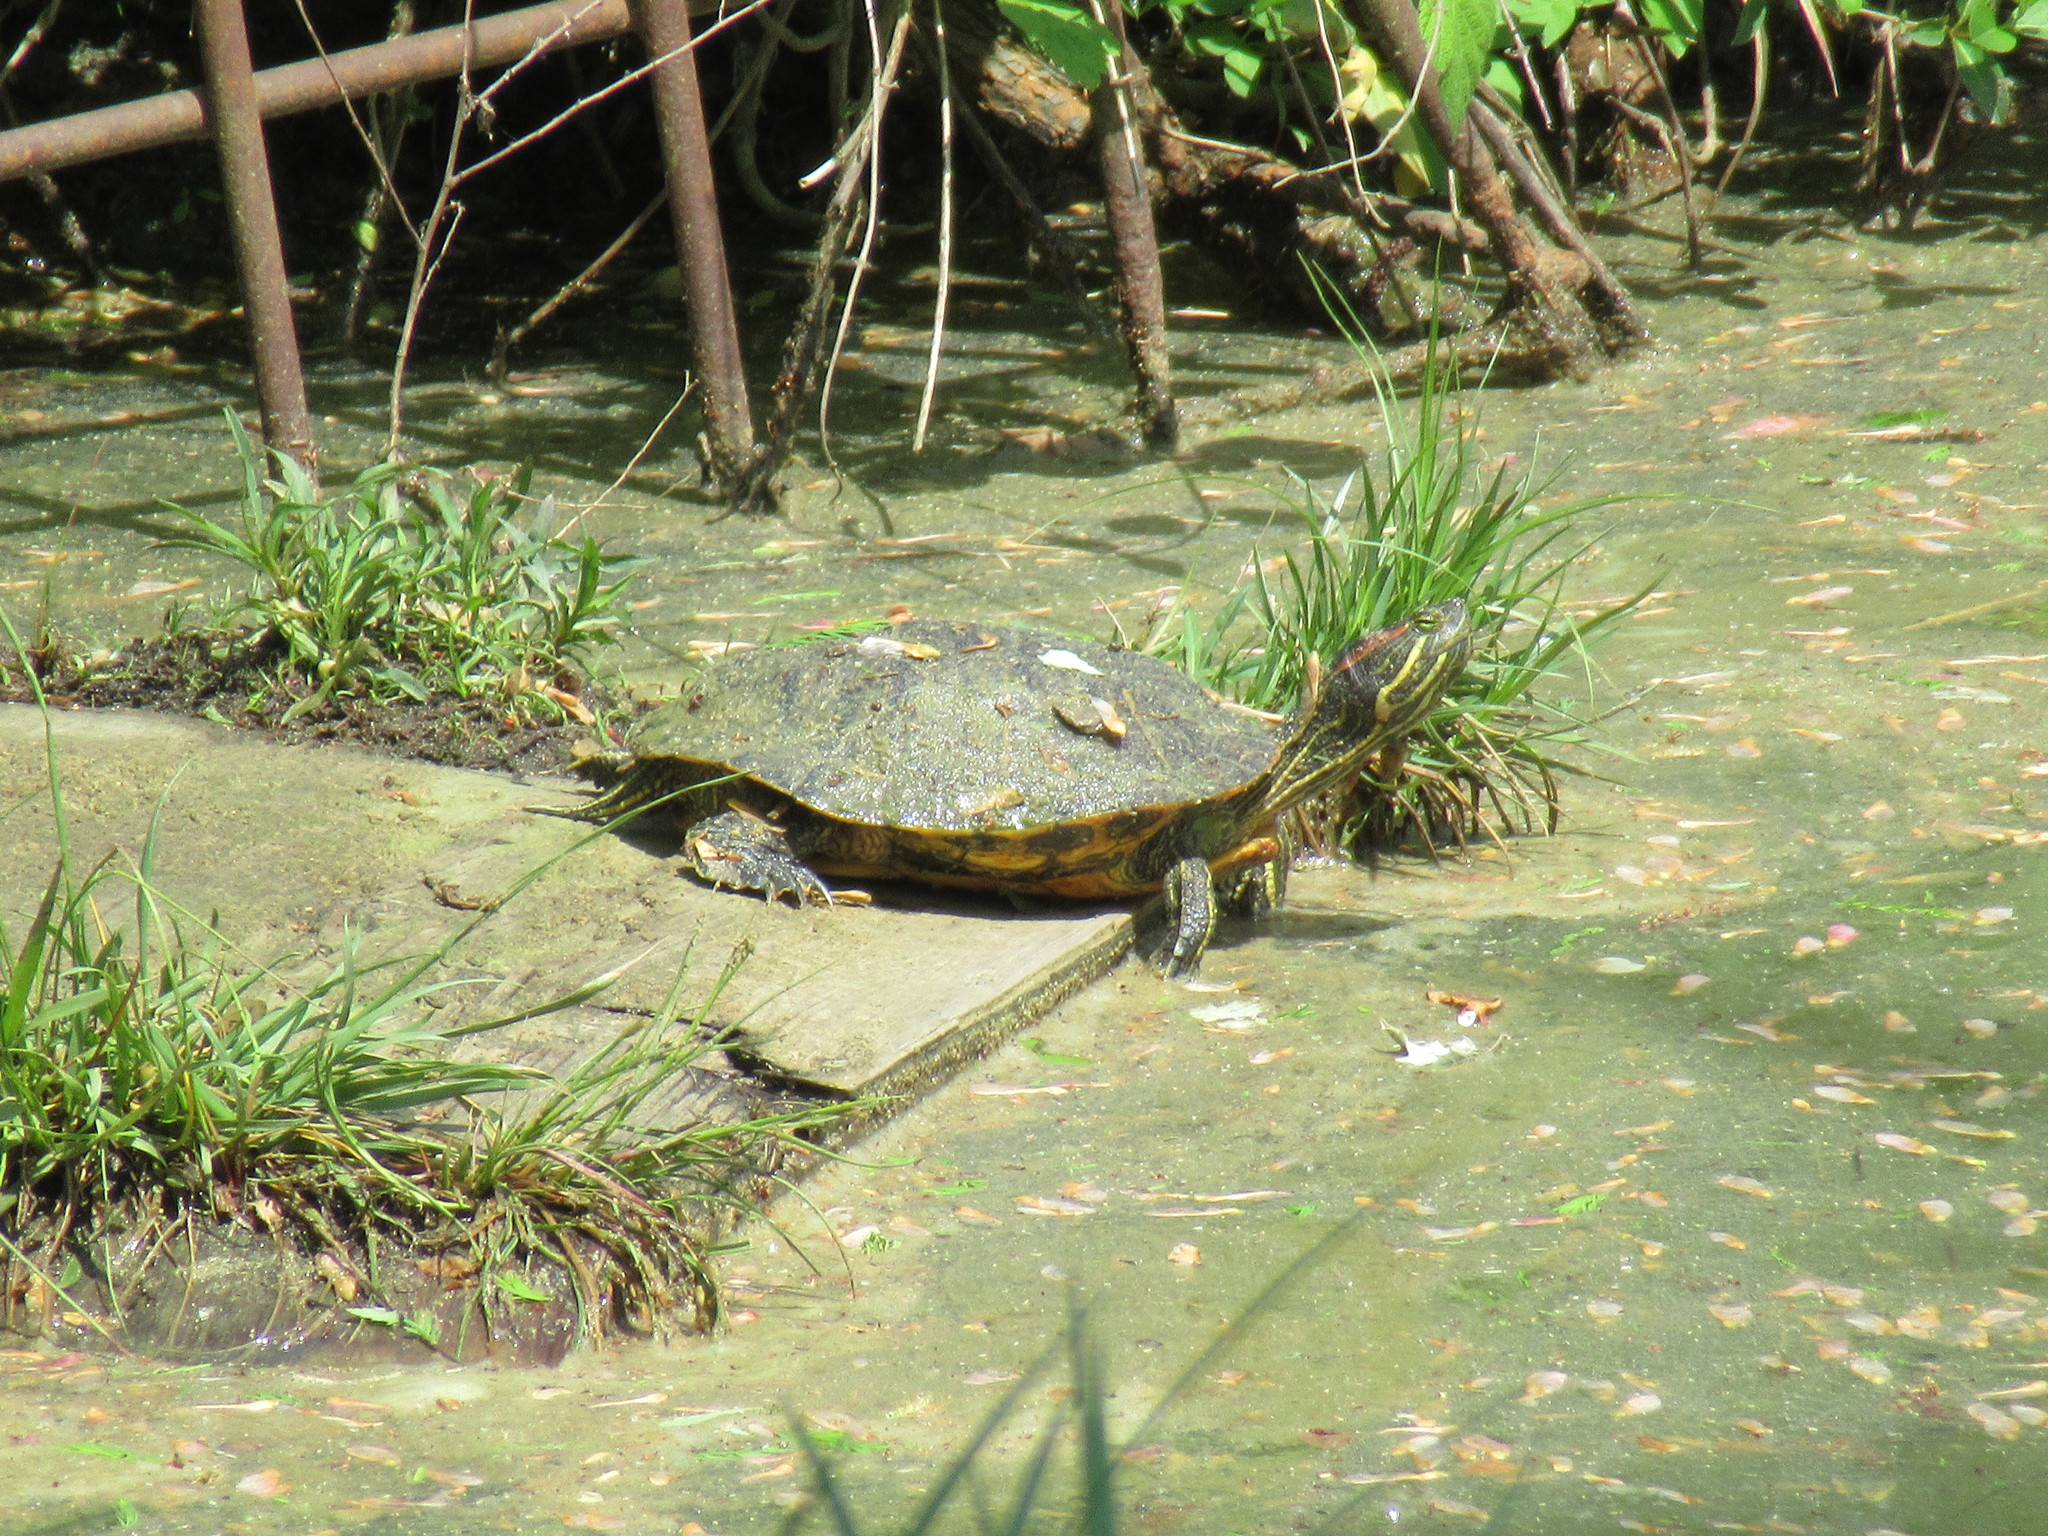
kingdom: Animalia
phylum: Chordata
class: Testudines
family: Emydidae
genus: Trachemys
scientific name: Trachemys scripta
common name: Slider
